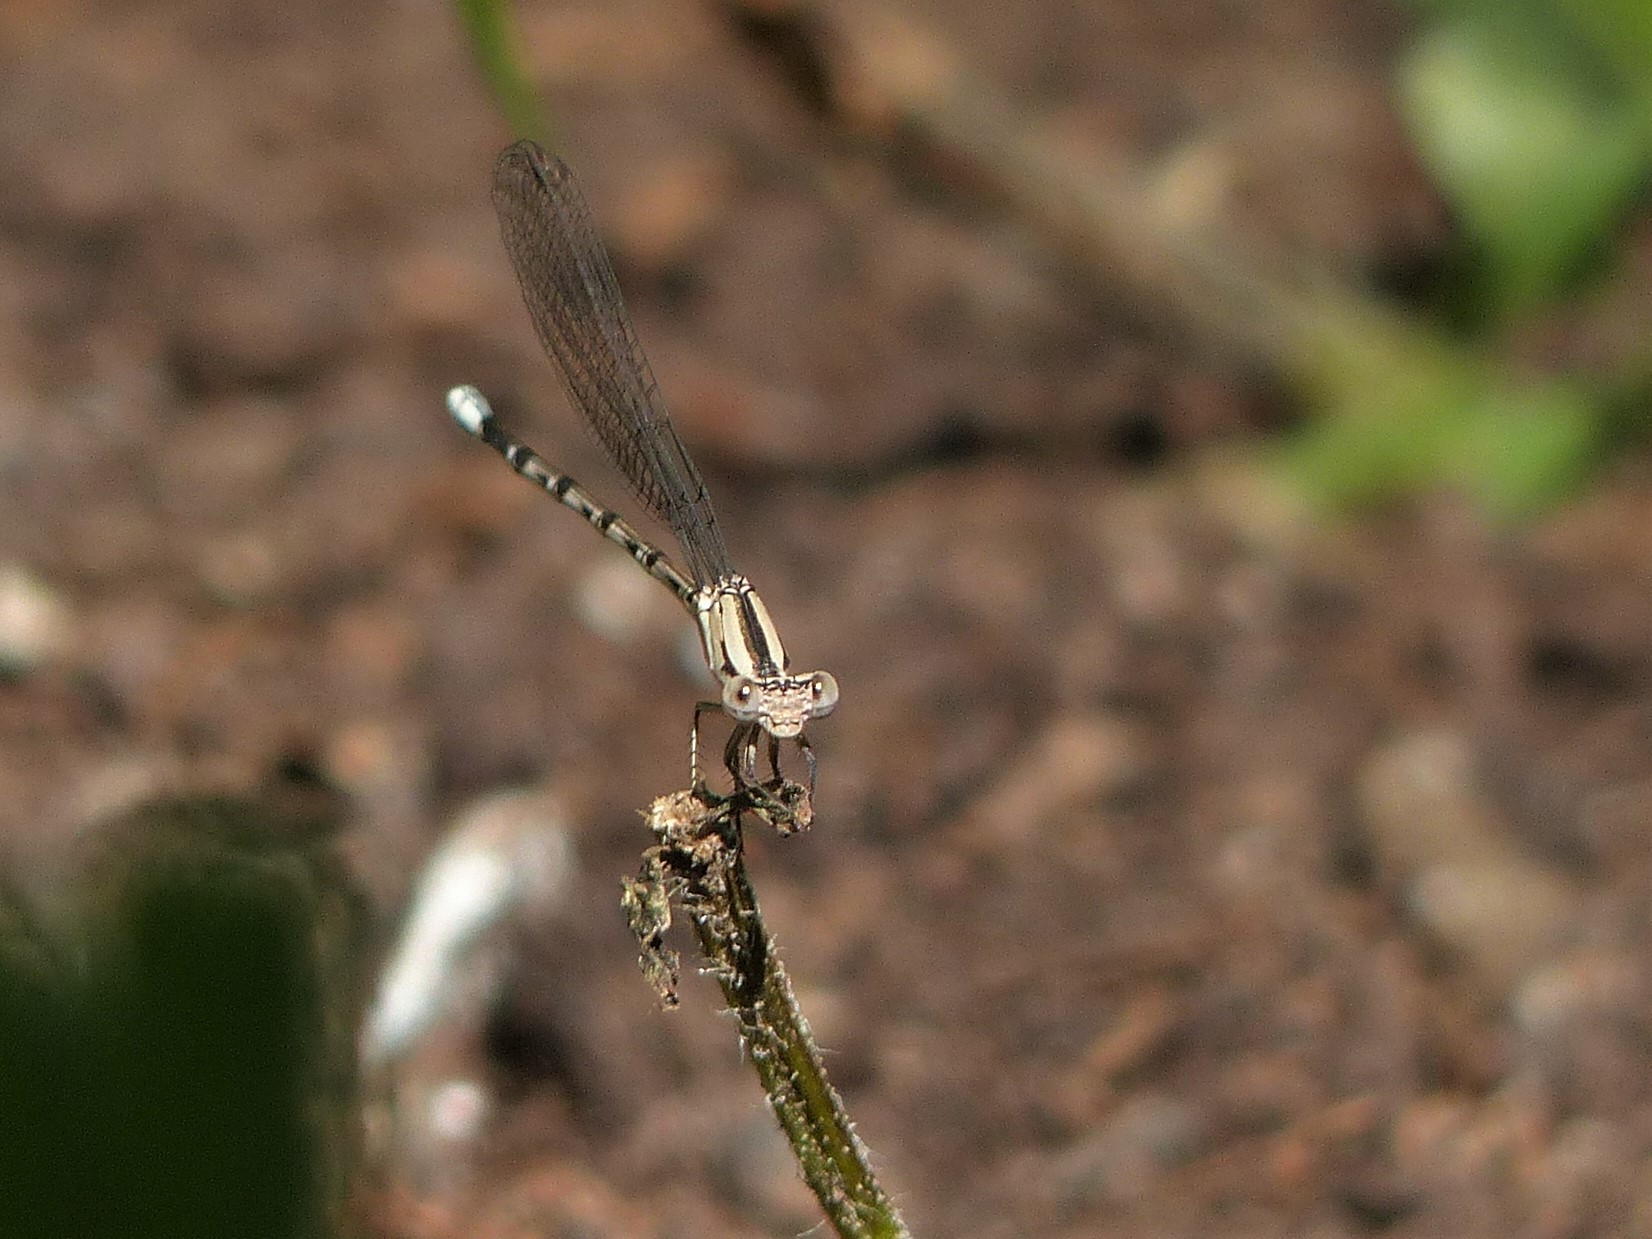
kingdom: Animalia
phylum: Arthropoda
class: Insecta
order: Odonata
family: Coenagrionidae
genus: Argia
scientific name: Argia funebris
